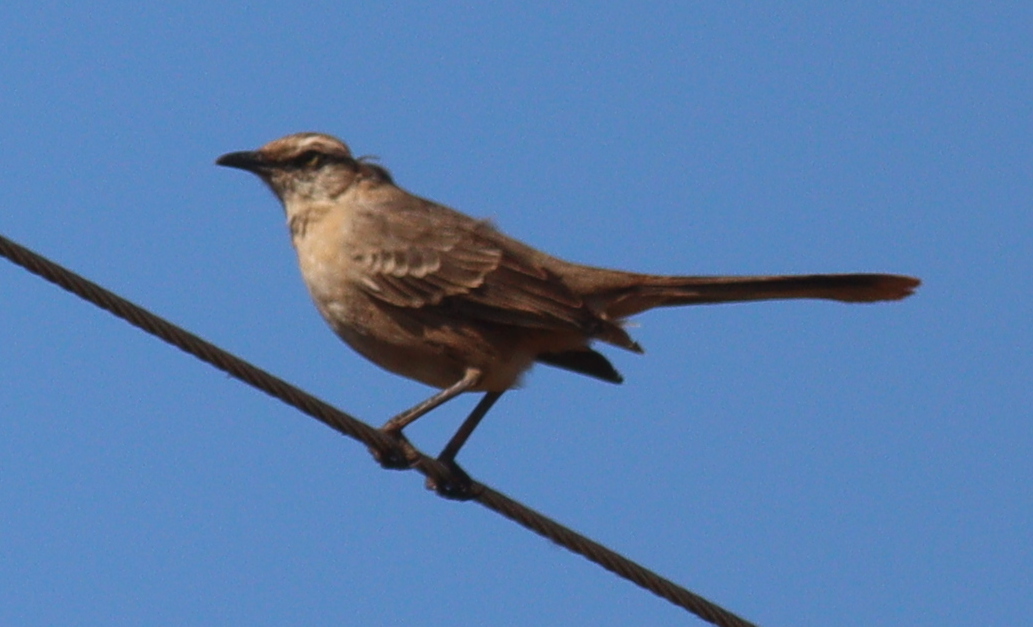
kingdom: Animalia
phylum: Chordata
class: Aves
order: Passeriformes
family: Mimidae
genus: Mimus
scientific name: Mimus saturninus
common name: Chalk-browed mockingbird
